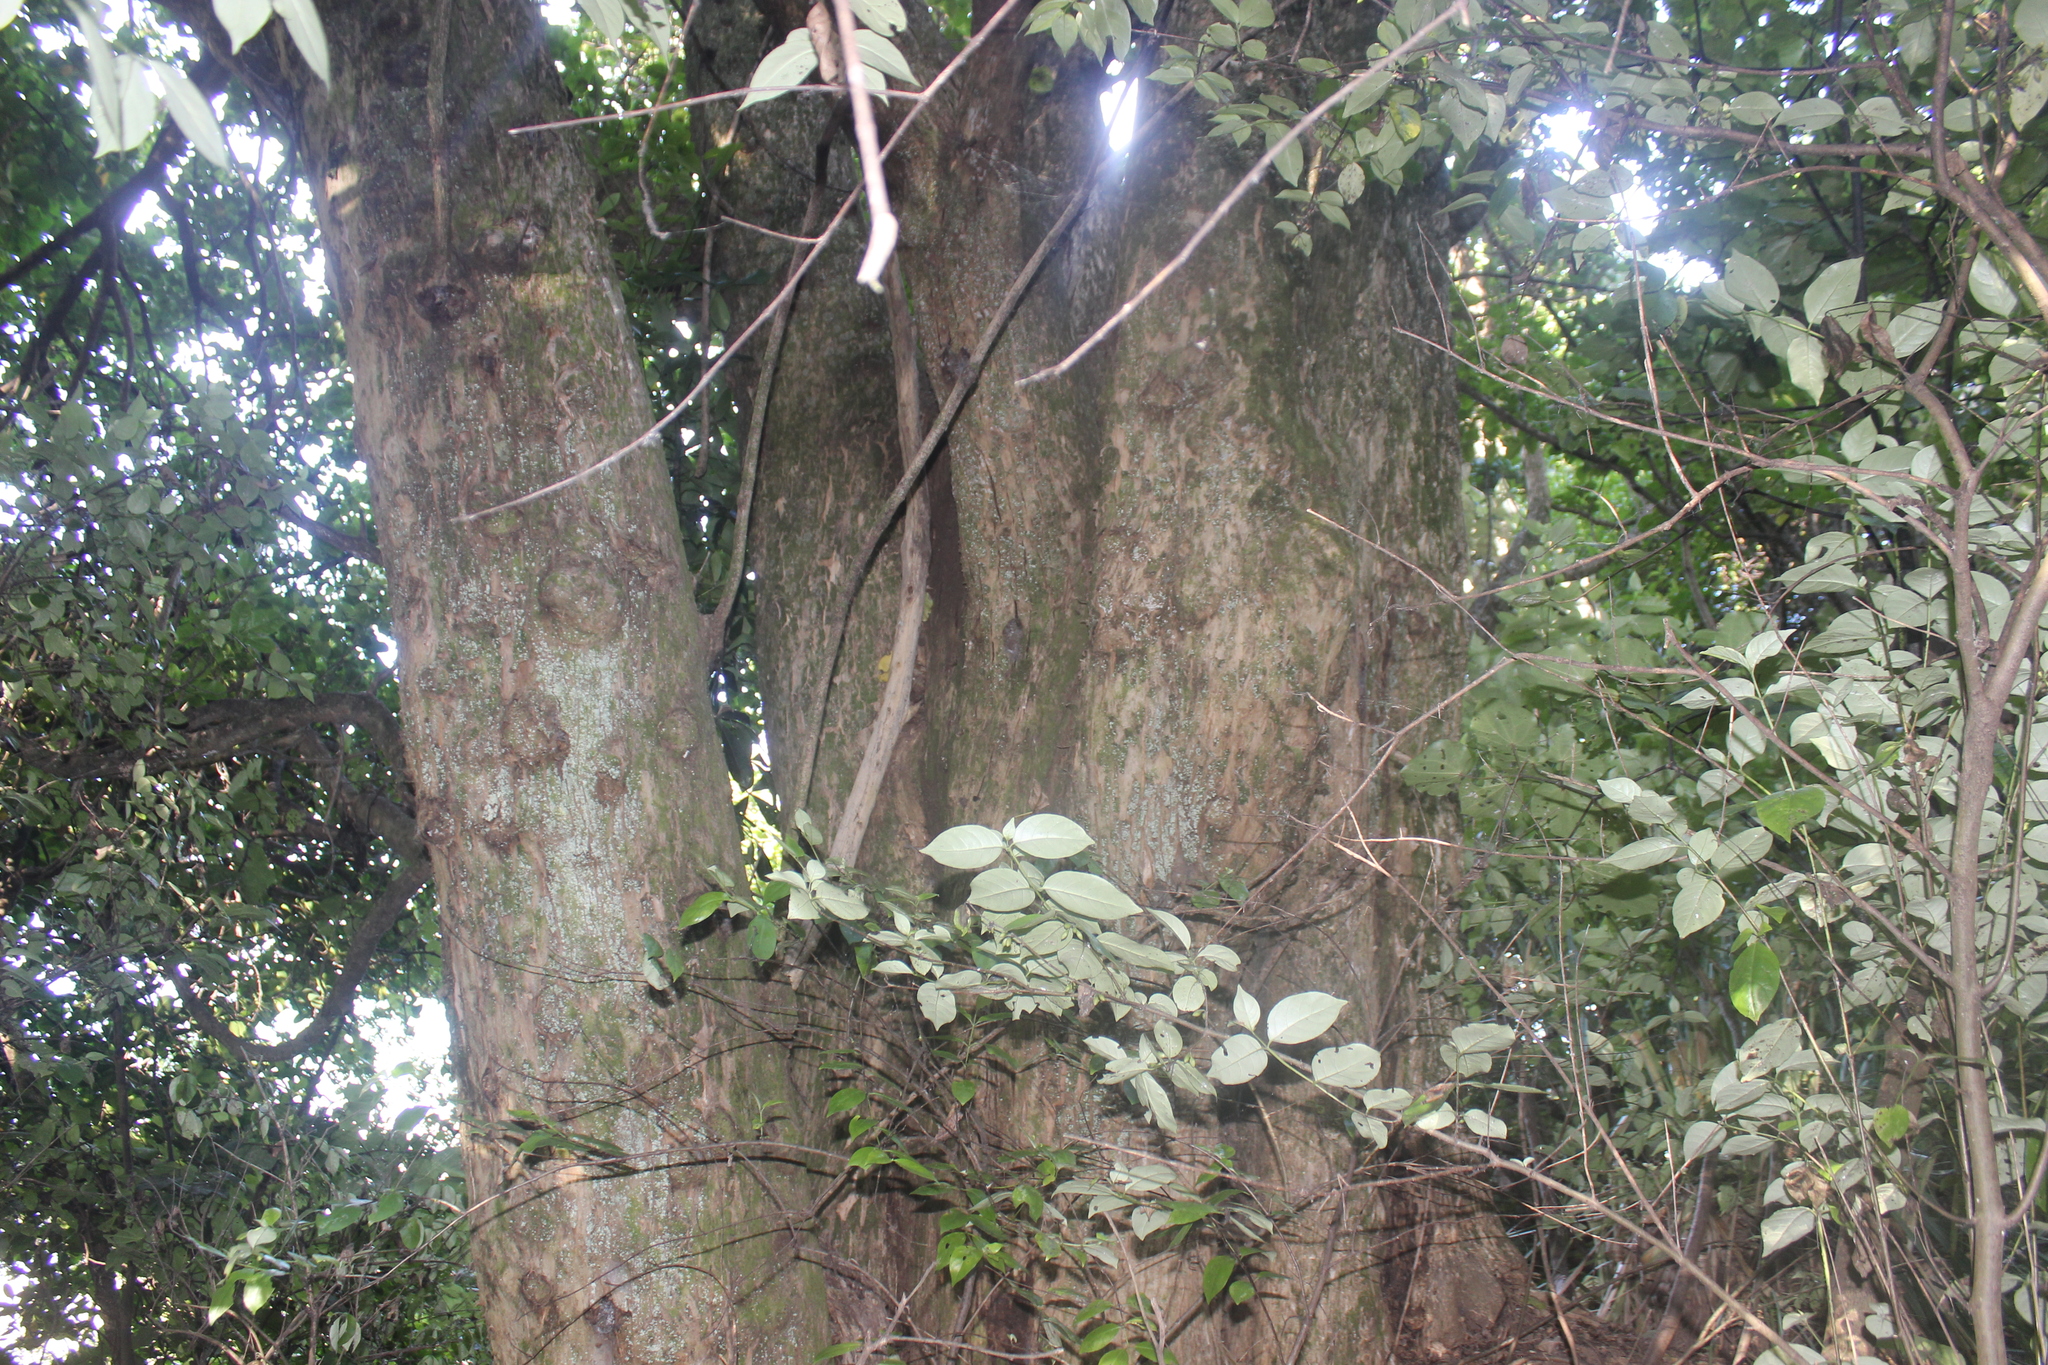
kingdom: Plantae
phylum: Tracheophyta
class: Magnoliopsida
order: Lamiales
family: Lamiaceae
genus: Vitex
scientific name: Vitex lucens
